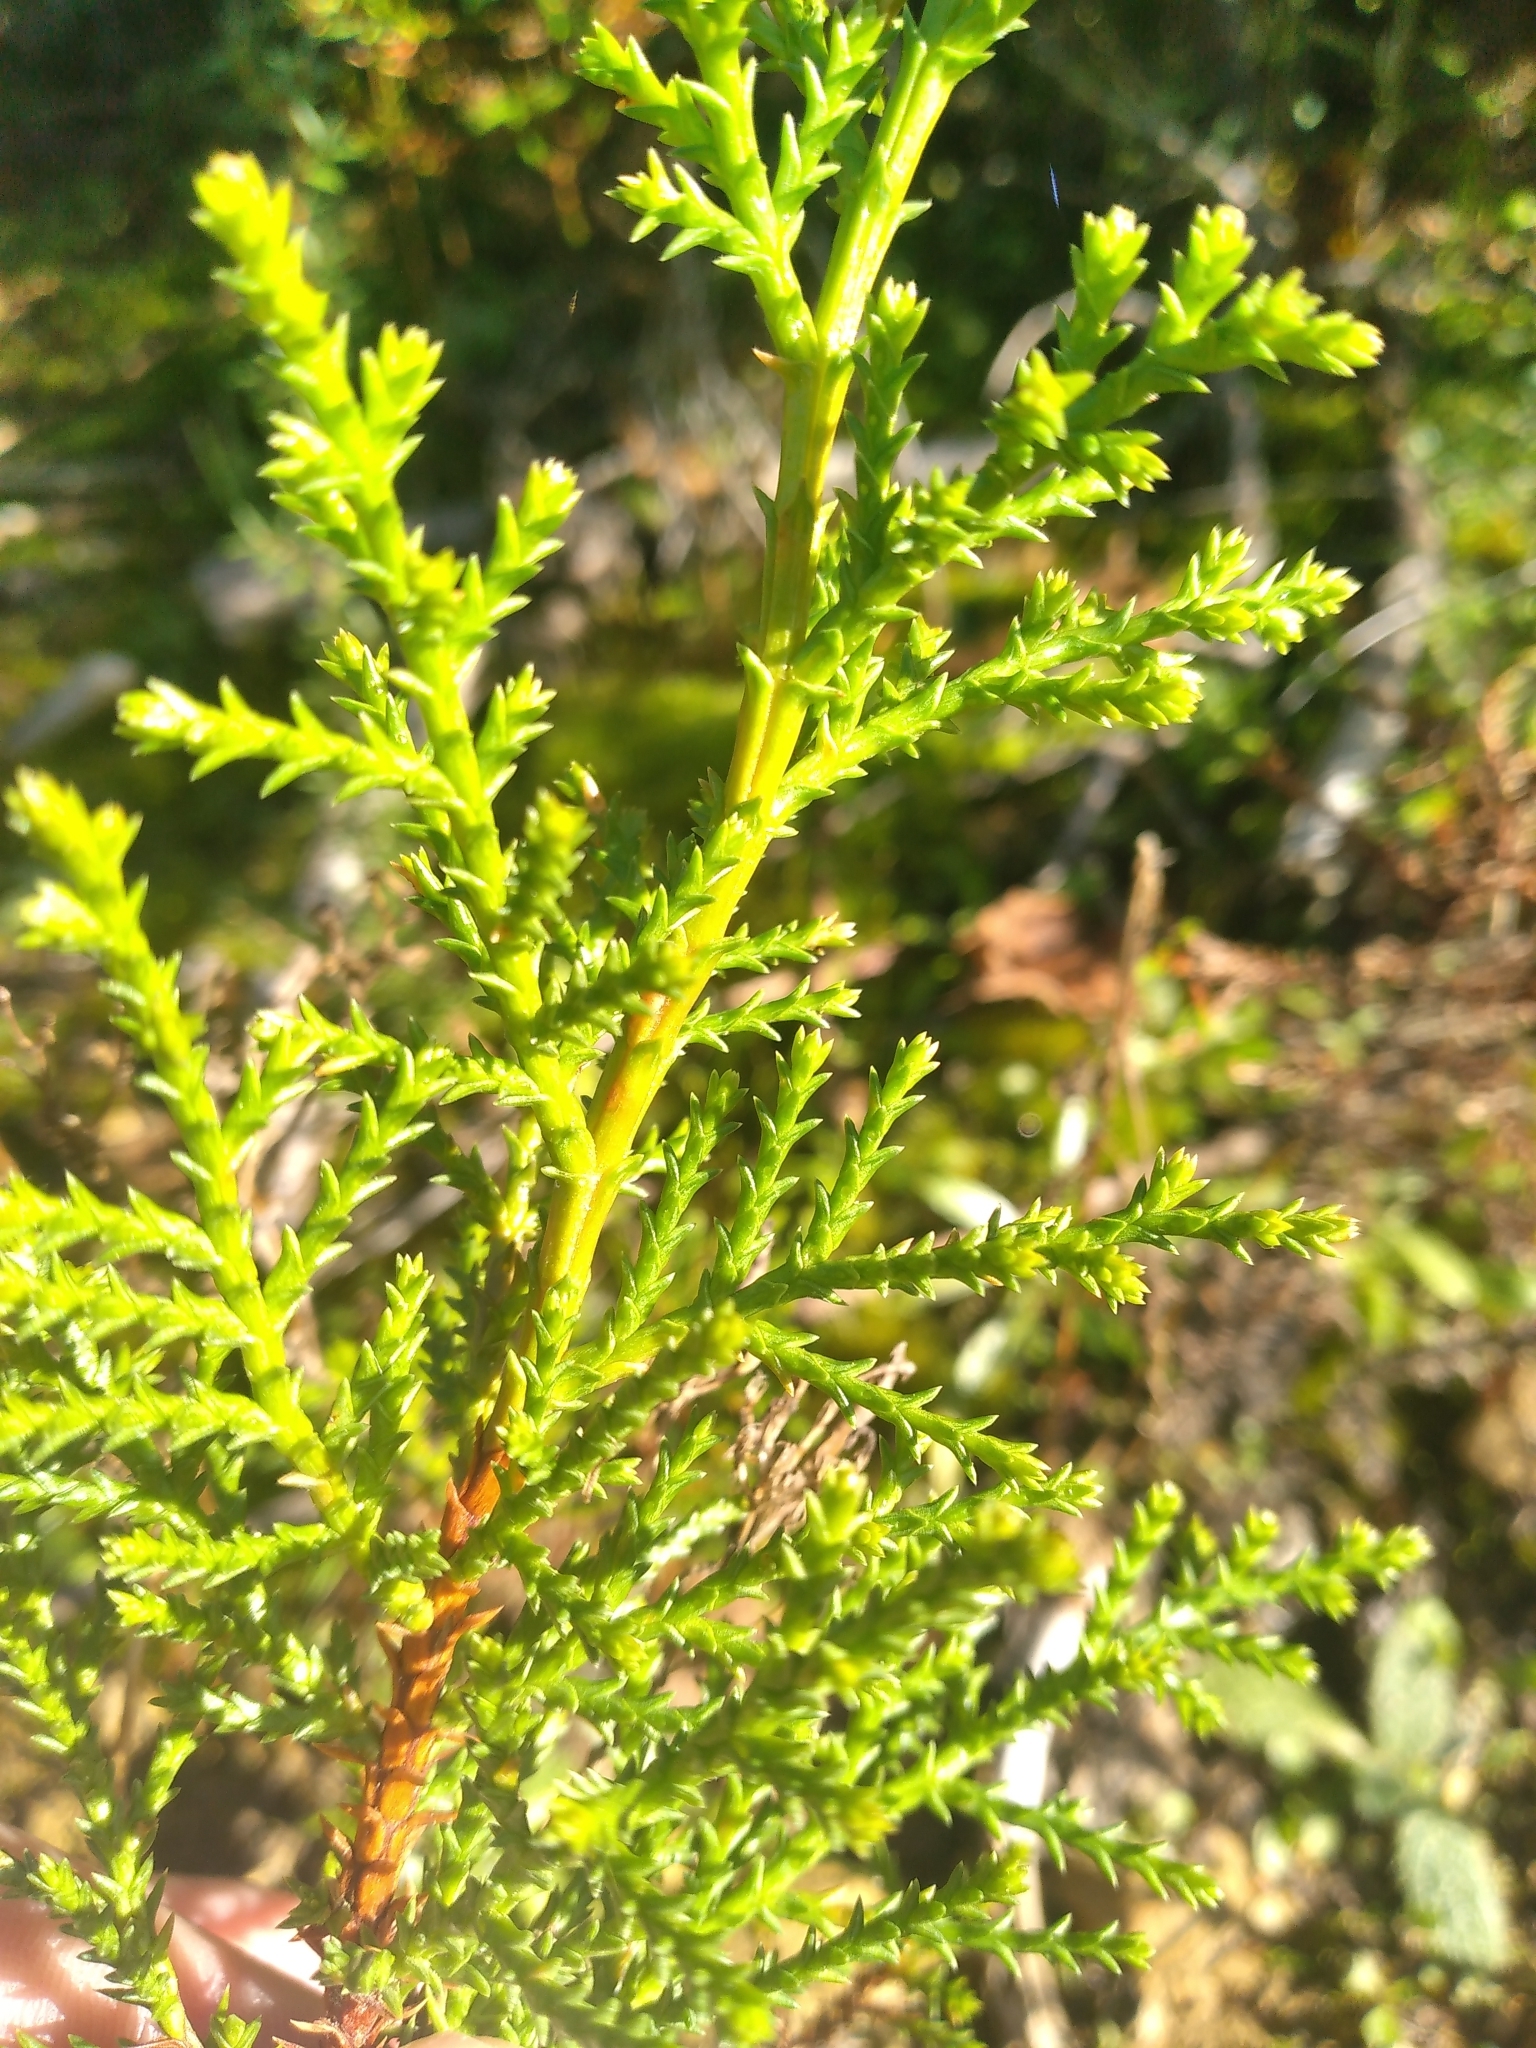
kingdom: Plantae
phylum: Tracheophyta
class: Pinopsida
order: Pinales
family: Cupressaceae
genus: Cupressus
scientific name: Cupressus macrocarpa
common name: Monterey cypress
